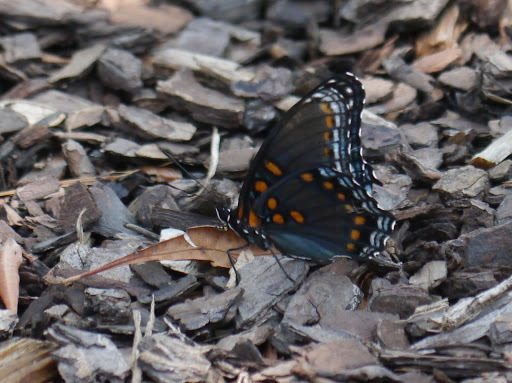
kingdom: Animalia
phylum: Arthropoda
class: Insecta
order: Lepidoptera
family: Nymphalidae
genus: Limenitis
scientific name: Limenitis astyanax
